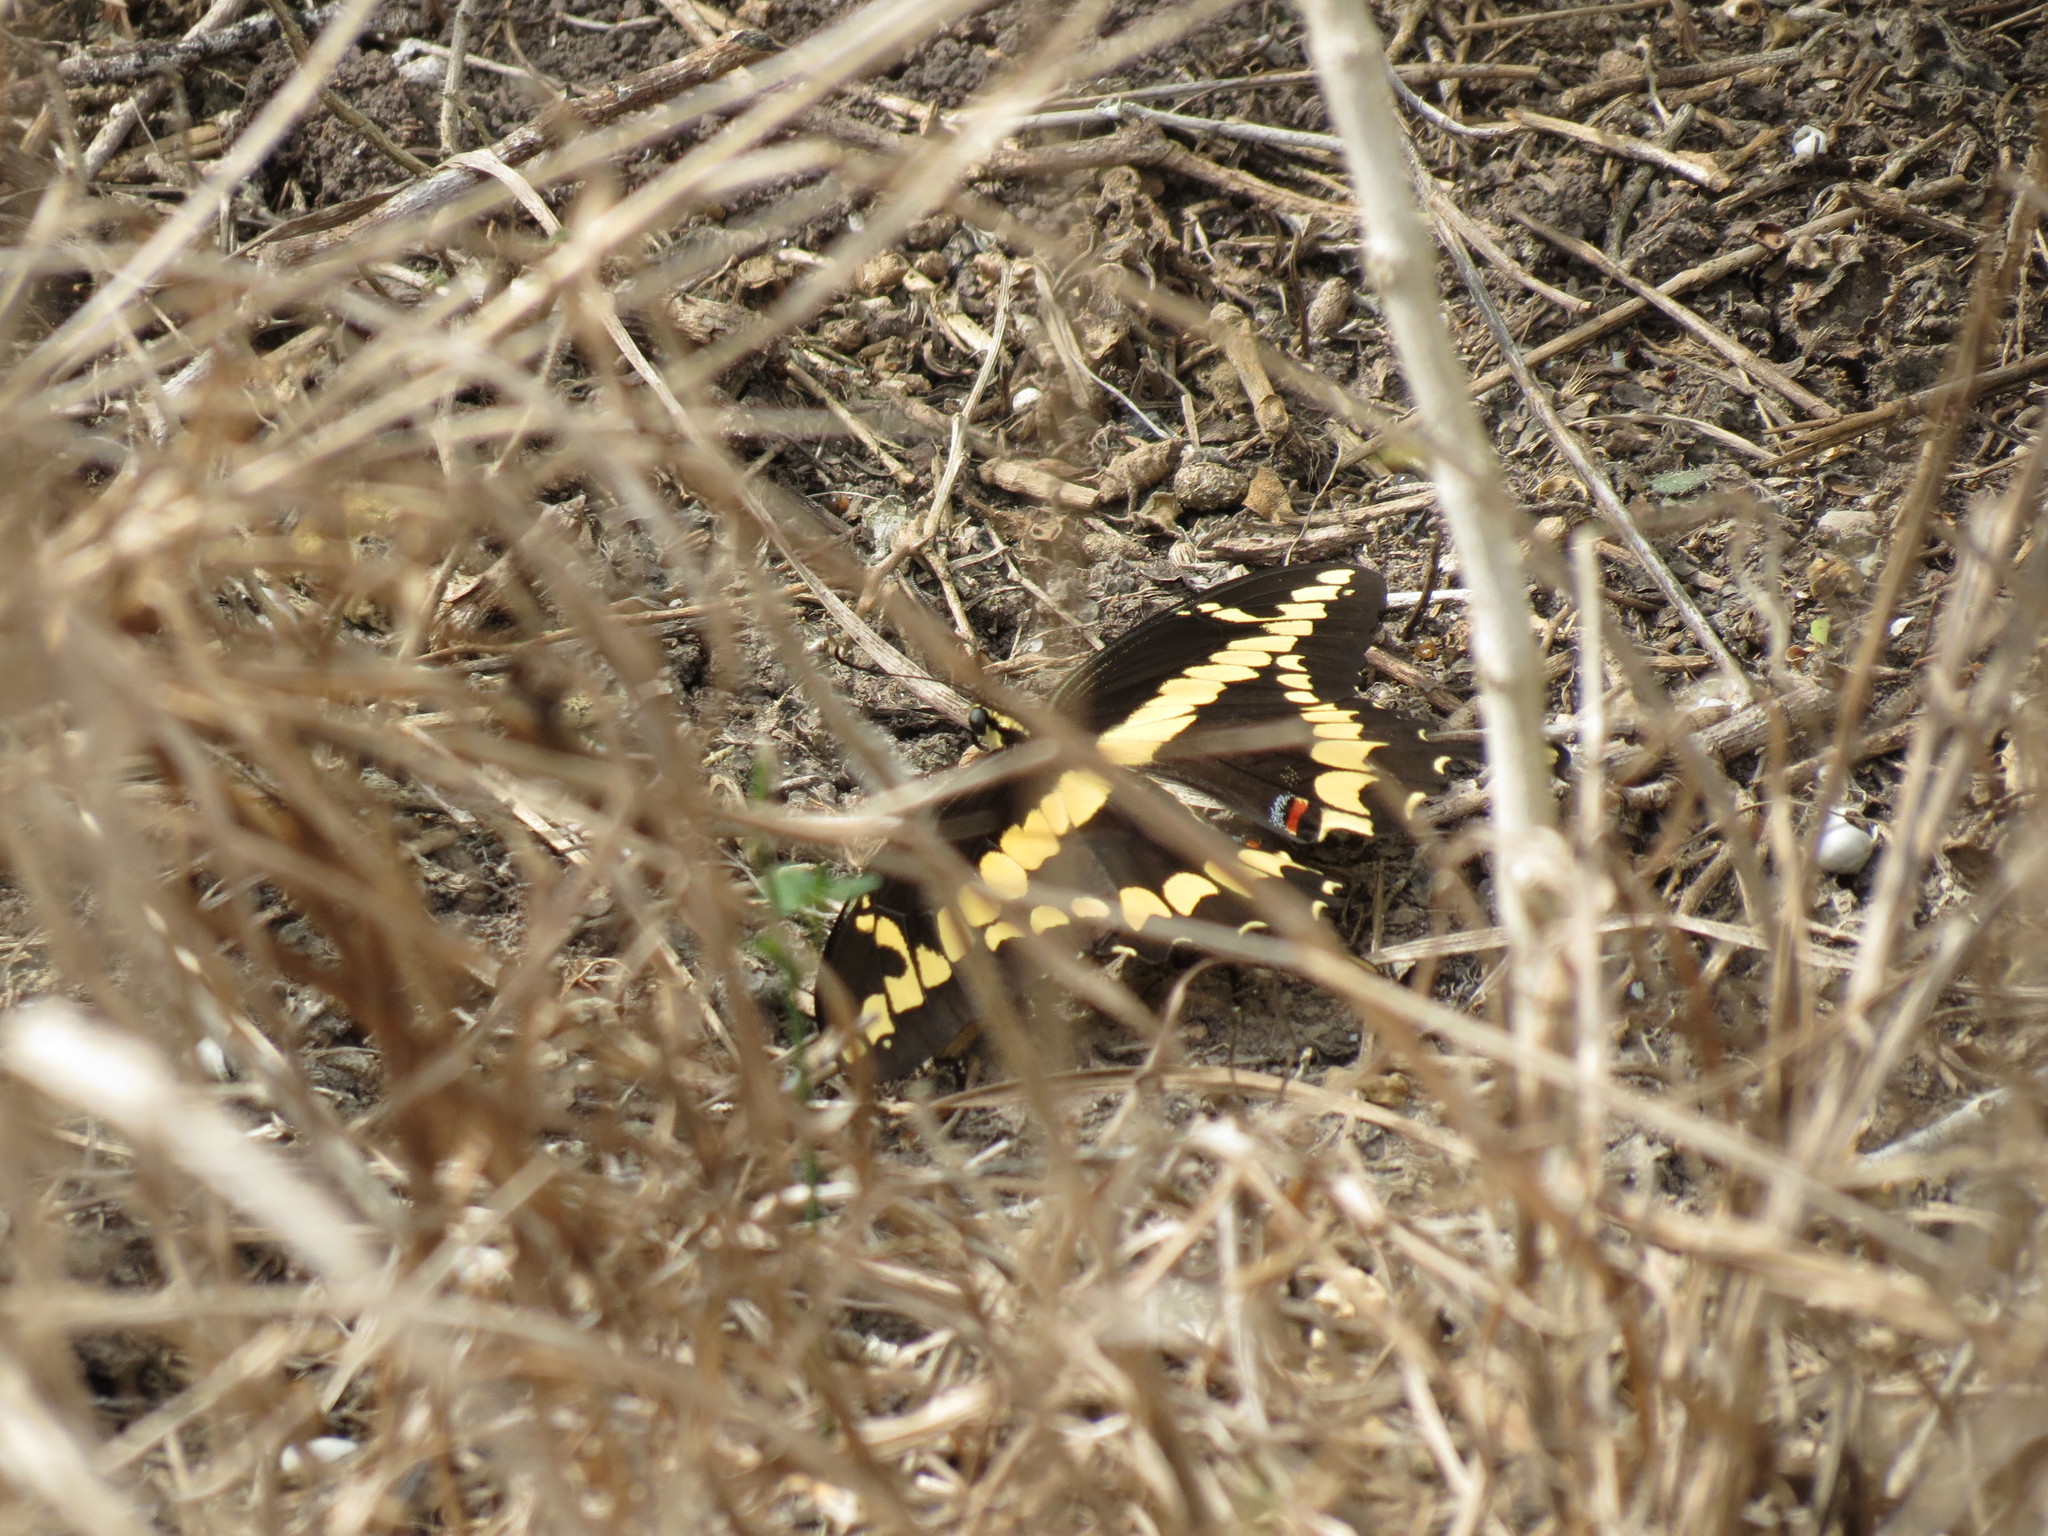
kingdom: Animalia
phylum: Arthropoda
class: Insecta
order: Lepidoptera
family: Papilionidae
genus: Papilio
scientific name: Papilio rumiko
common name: Western giant swallowtail
